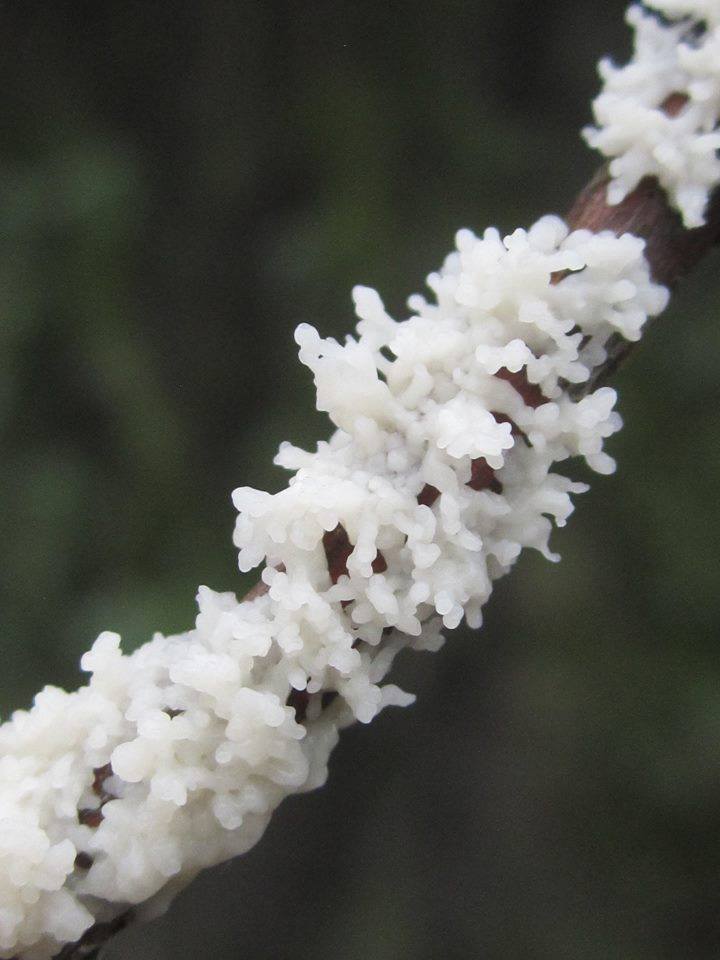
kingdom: Protozoa
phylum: Mycetozoa
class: Myxomycetes
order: Physarales
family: Physaraceae
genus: Didymium
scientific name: Didymium
